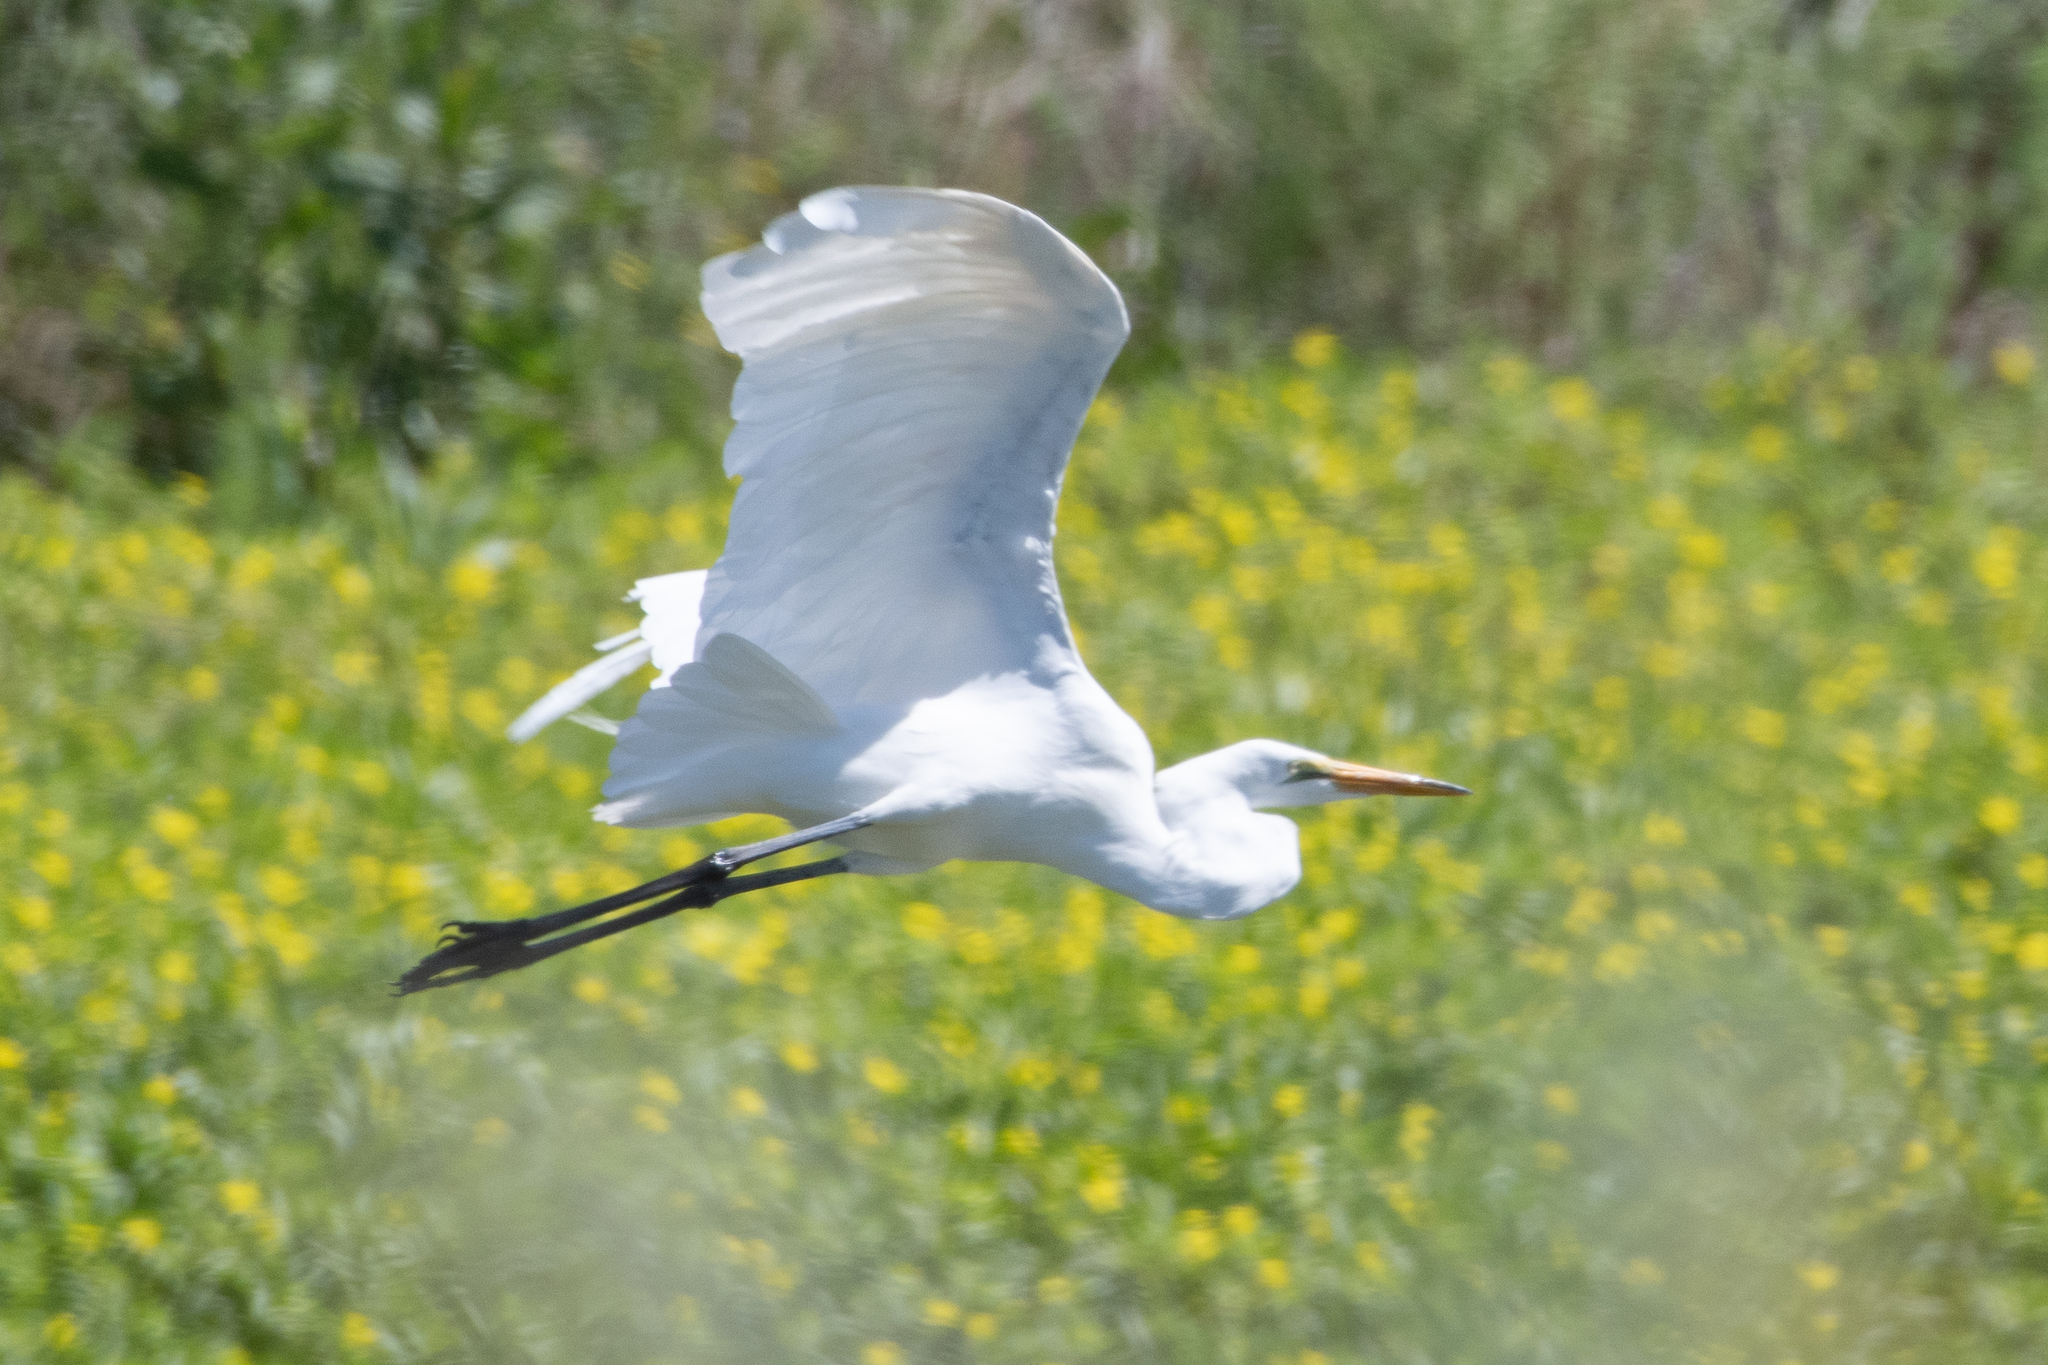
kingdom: Animalia
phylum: Chordata
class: Aves
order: Pelecaniformes
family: Ardeidae
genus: Ardea
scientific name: Ardea alba
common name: Great egret
